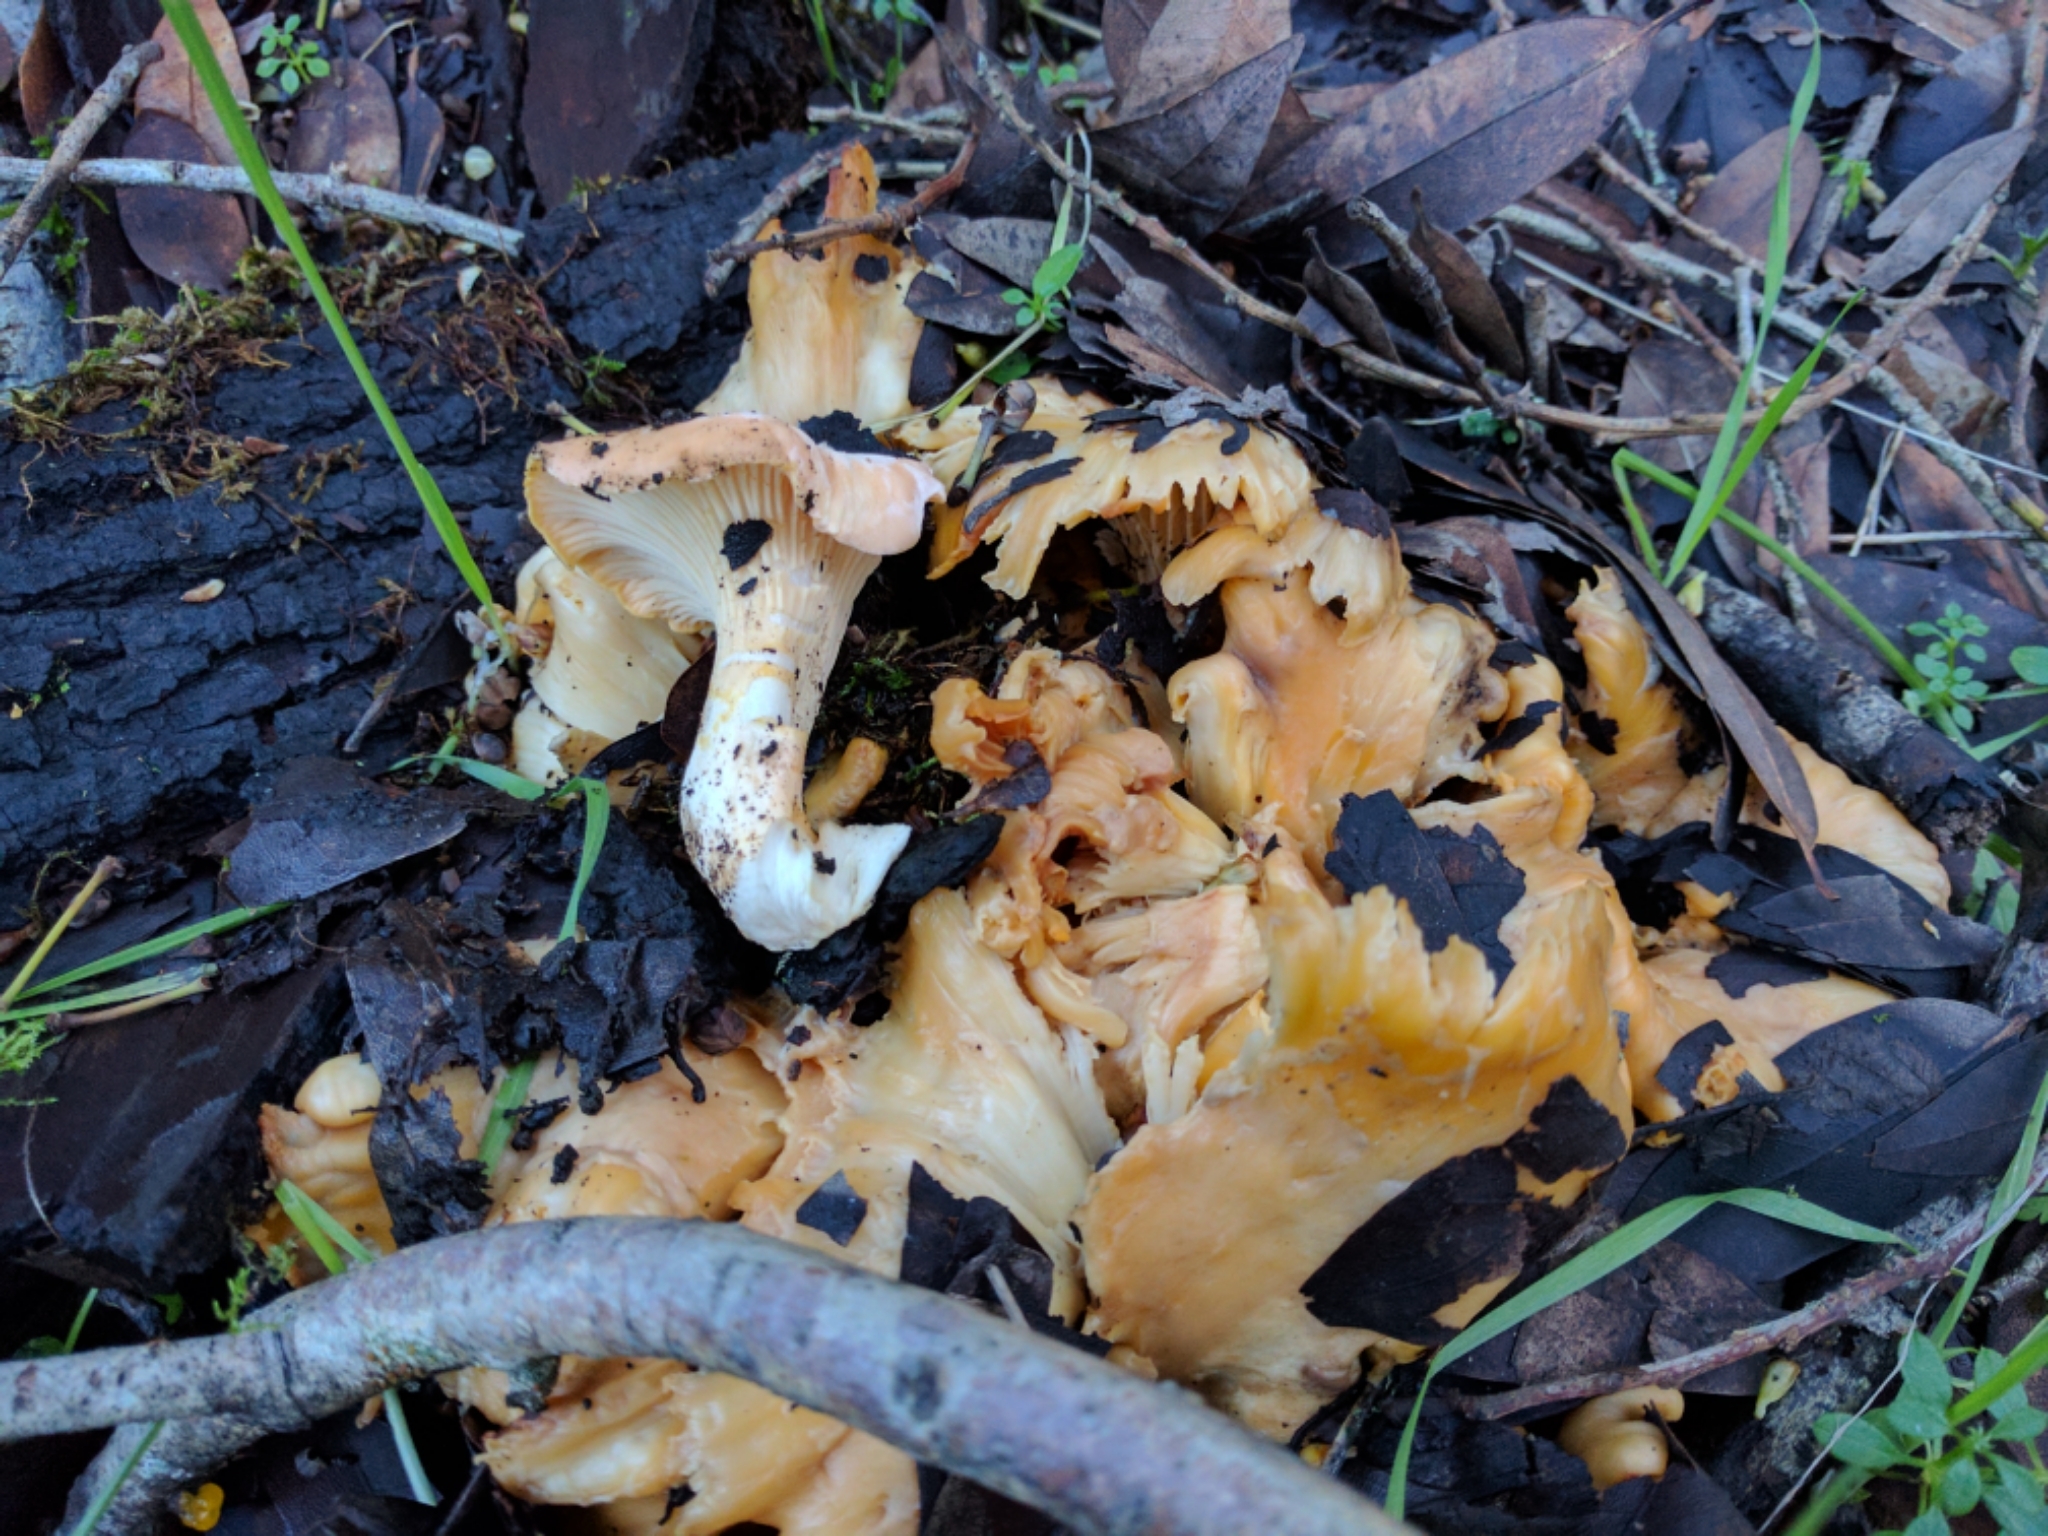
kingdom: Fungi
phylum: Basidiomycota
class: Agaricomycetes
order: Cantharellales
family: Hydnaceae
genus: Cantharellus
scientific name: Cantharellus californicus
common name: California golden chanterelle
